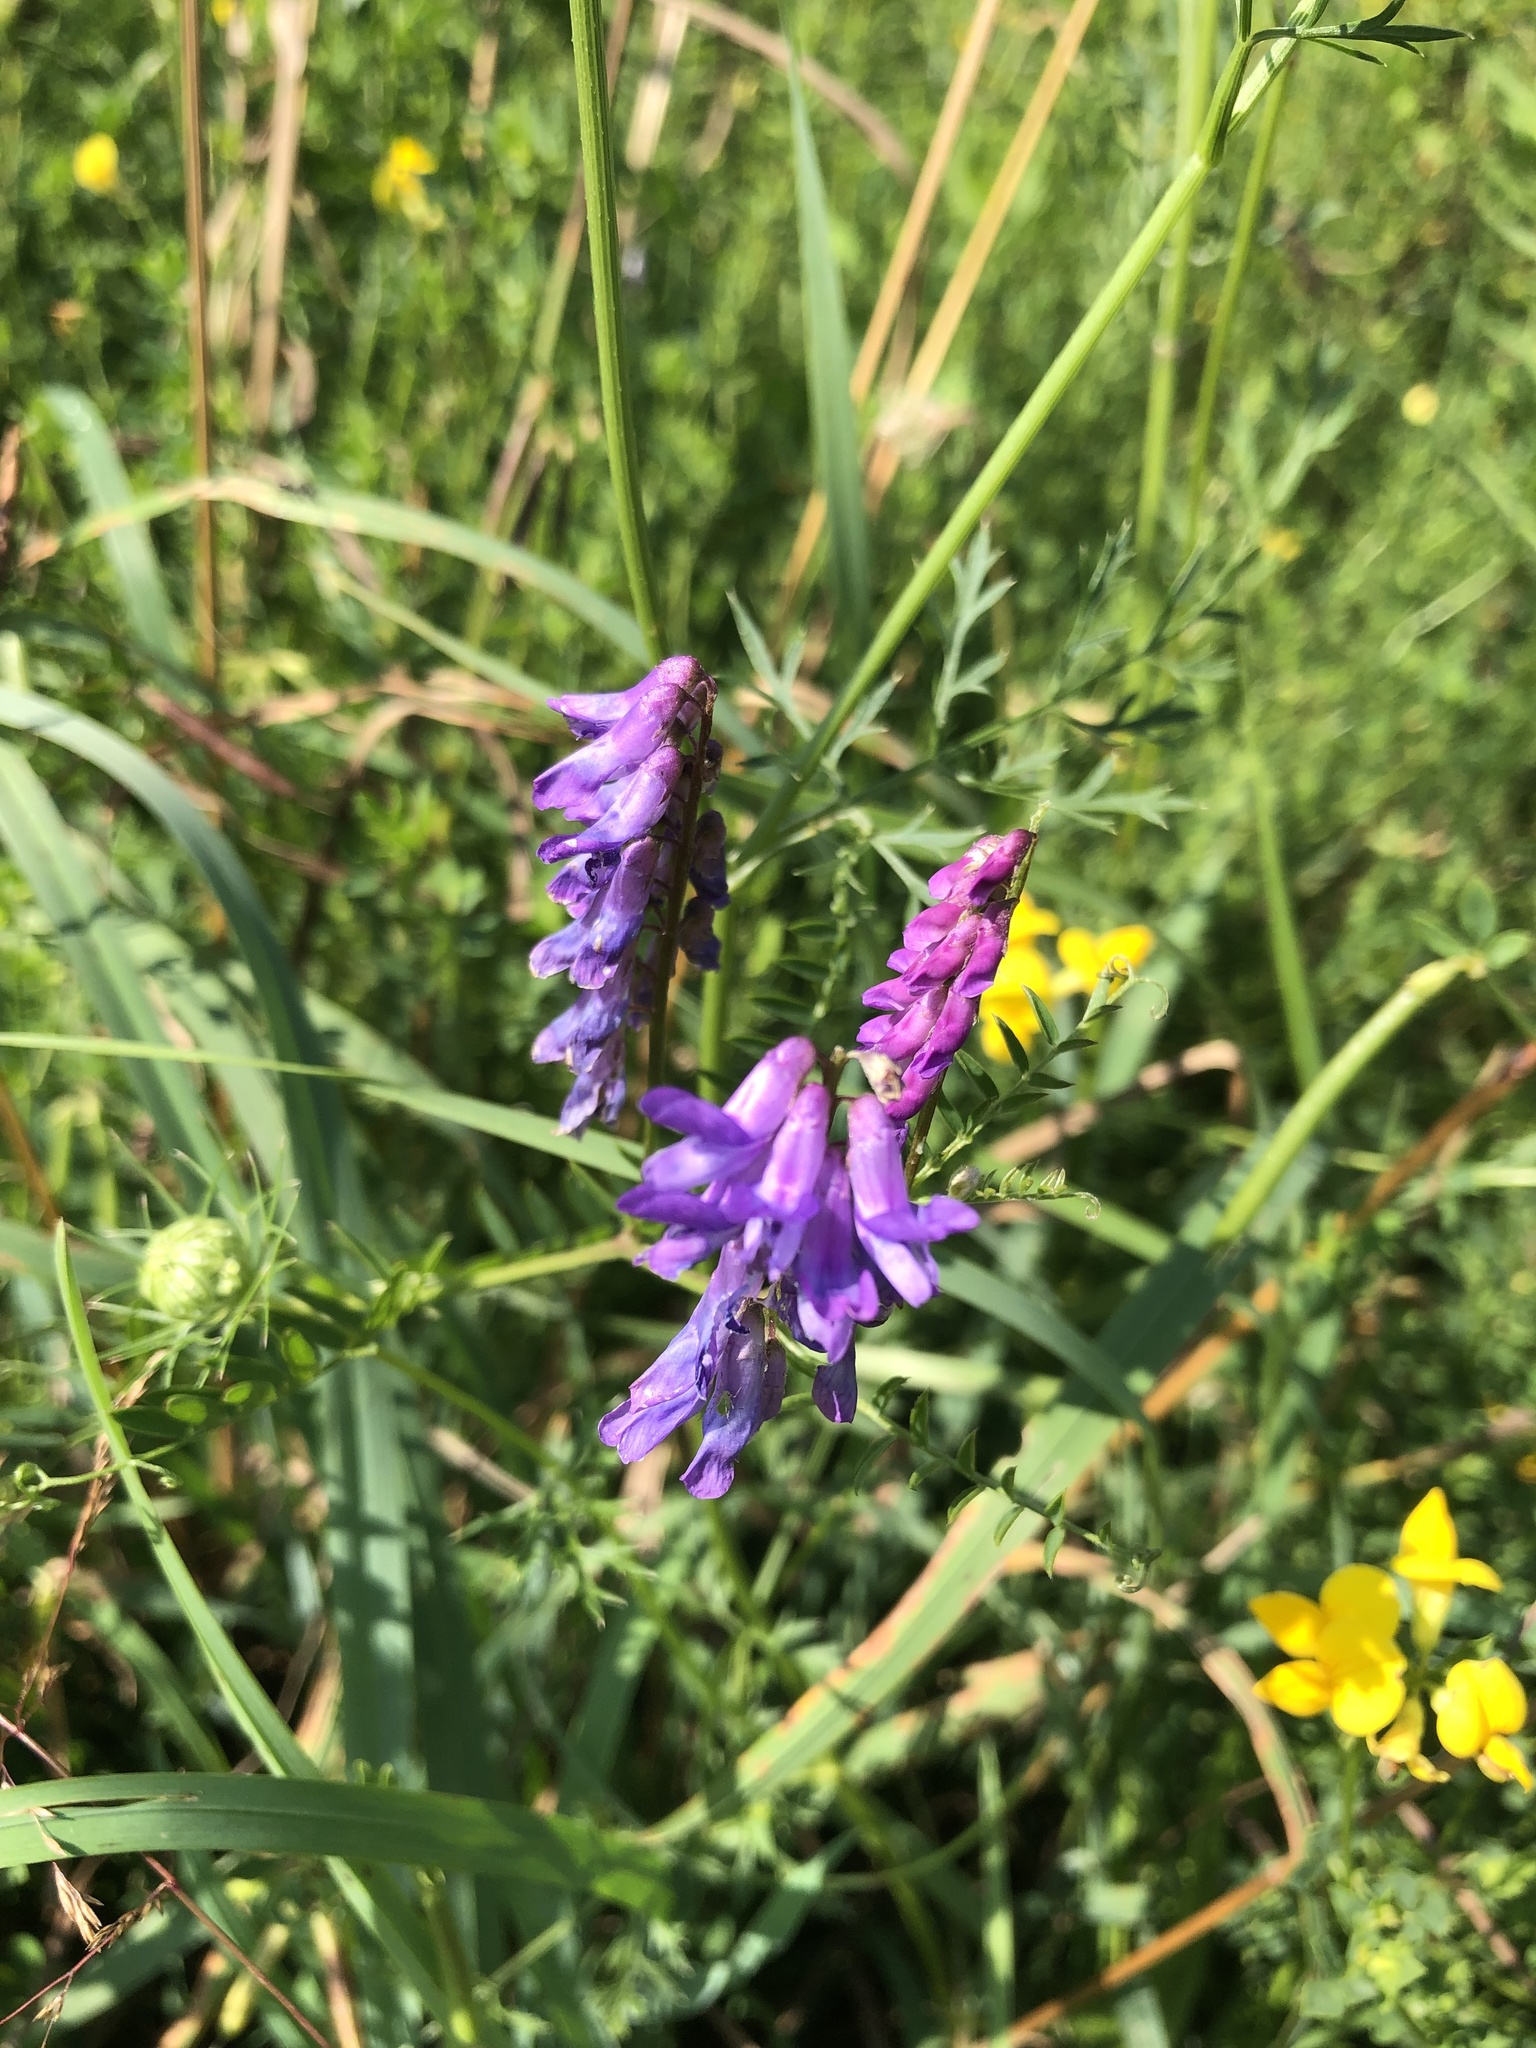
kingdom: Plantae
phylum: Tracheophyta
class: Magnoliopsida
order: Fabales
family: Fabaceae
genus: Vicia
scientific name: Vicia cracca
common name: Bird vetch
